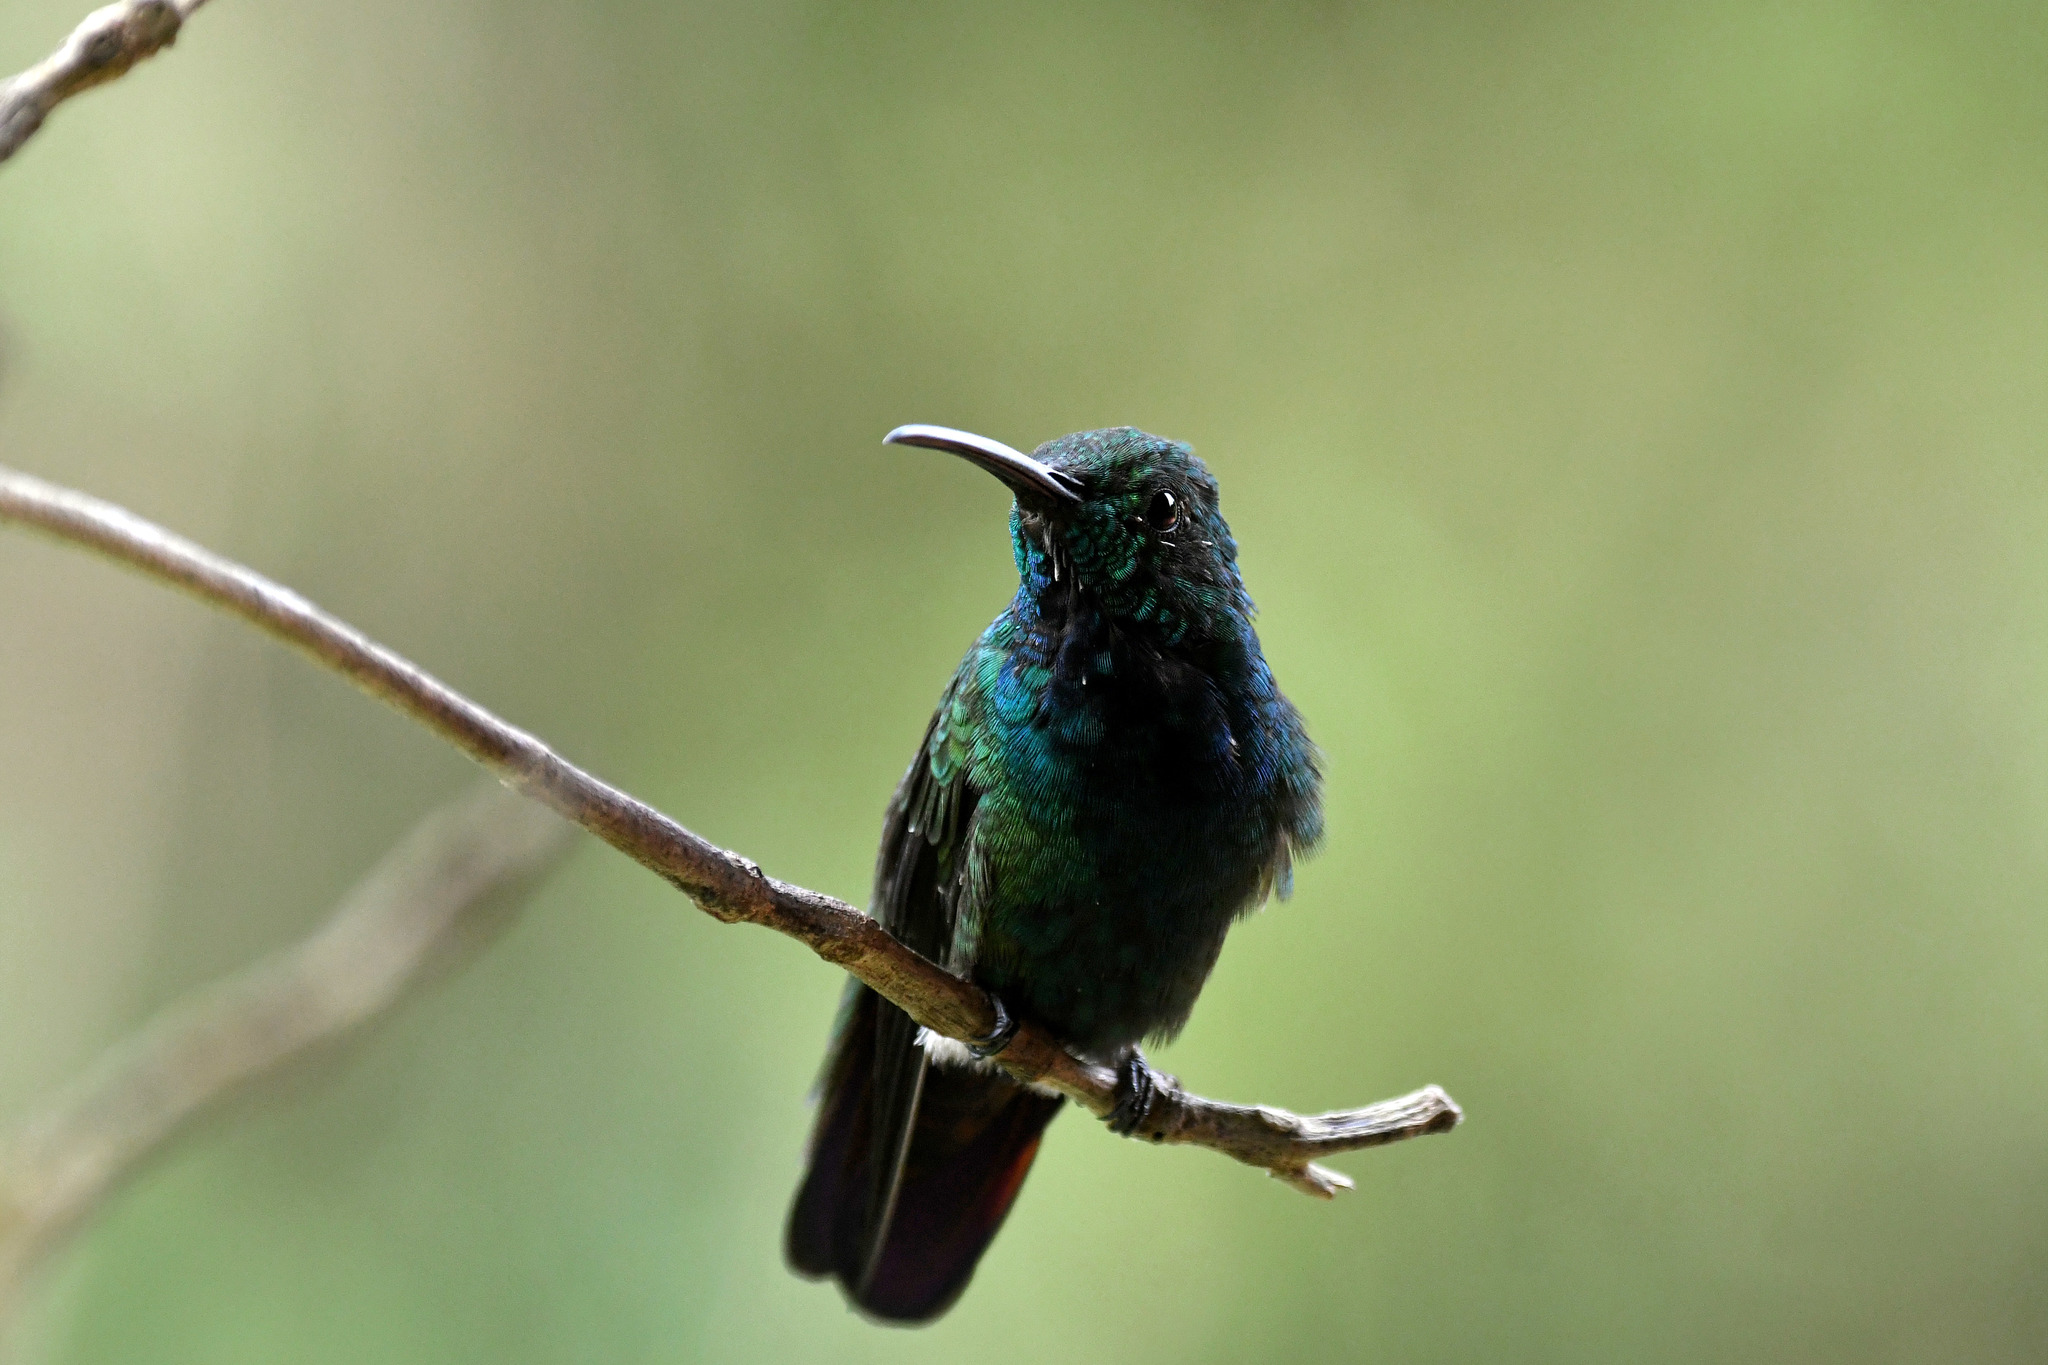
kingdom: Animalia
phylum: Chordata
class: Aves
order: Apodiformes
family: Trochilidae
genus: Anthracothorax
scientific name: Anthracothorax prevostii
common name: Green-breasted mango
